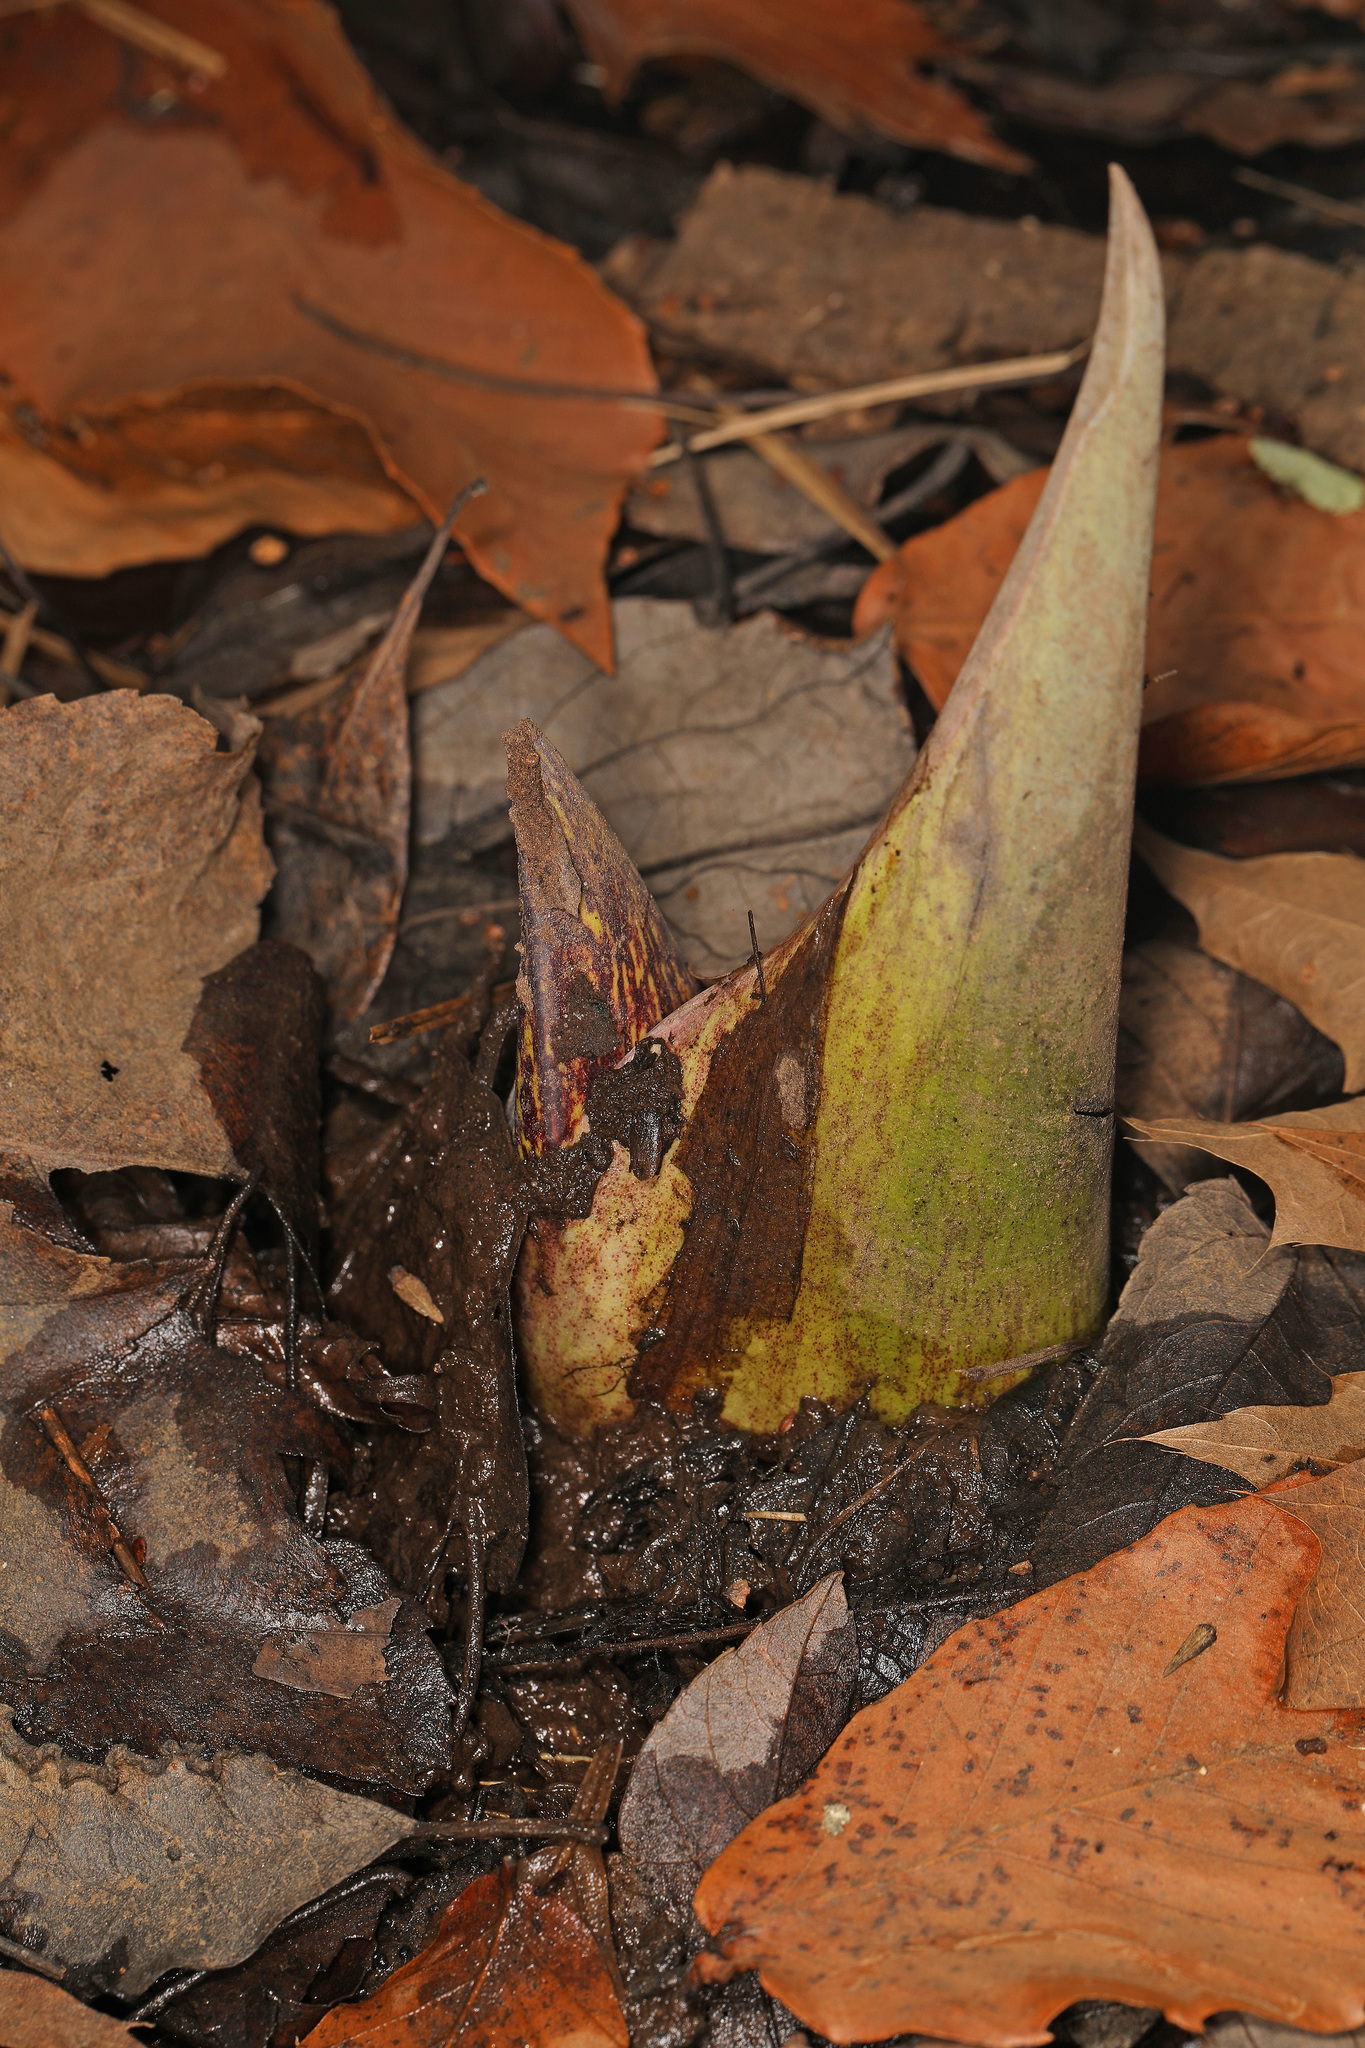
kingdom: Plantae
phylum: Tracheophyta
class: Liliopsida
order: Alismatales
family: Araceae
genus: Symplocarpus
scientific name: Symplocarpus foetidus
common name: Eastern skunk cabbage
